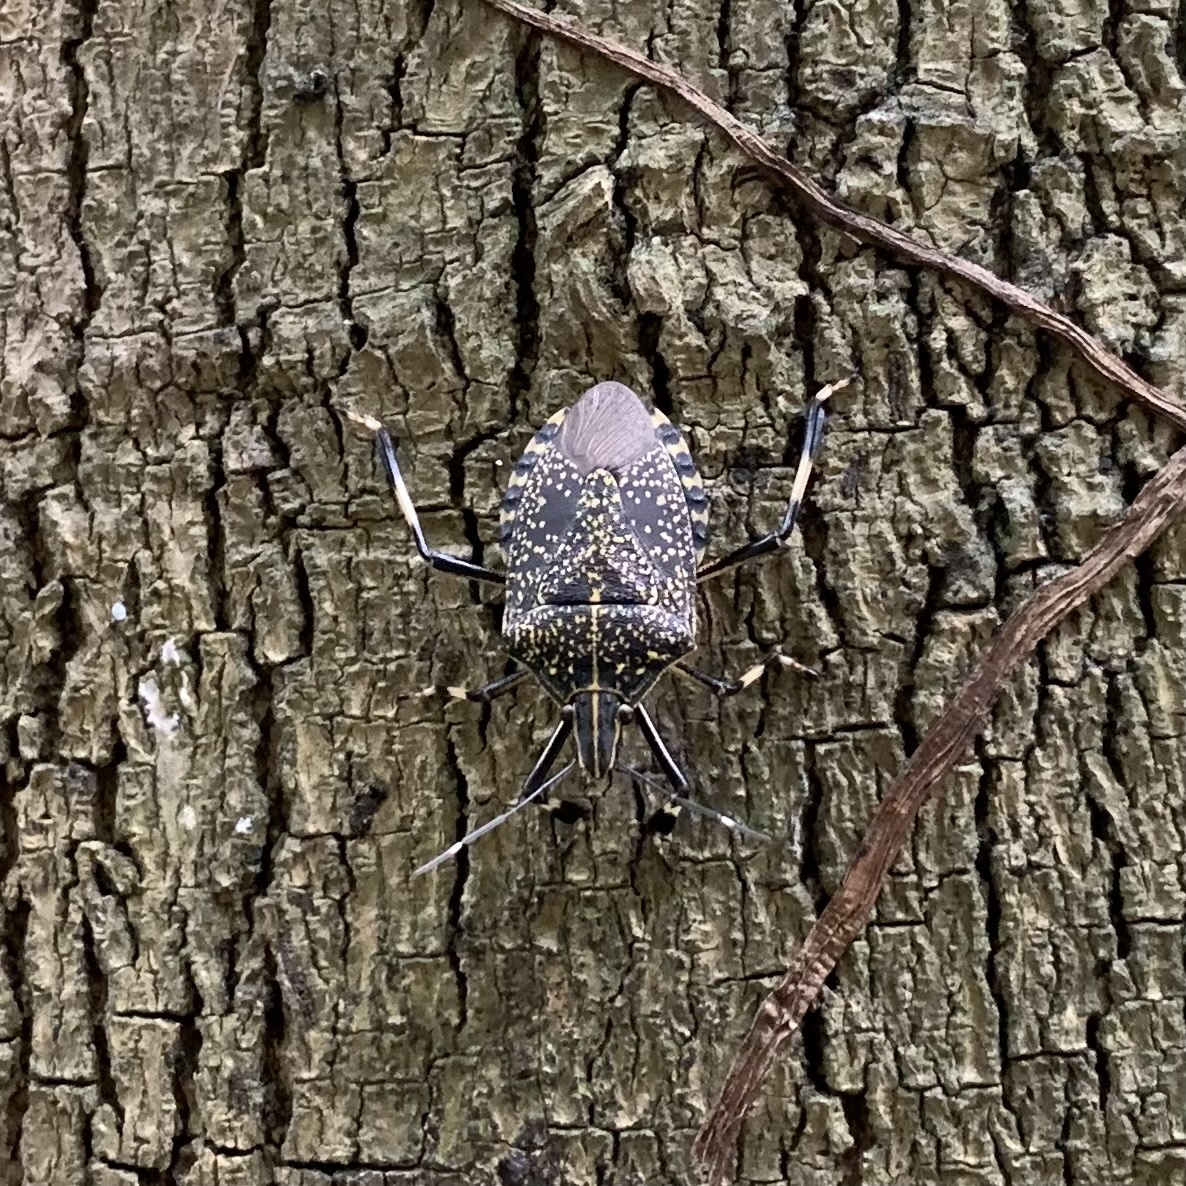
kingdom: Animalia
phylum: Arthropoda
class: Insecta
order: Hemiptera
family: Pentatomidae
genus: Erthesina
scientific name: Erthesina fullo
